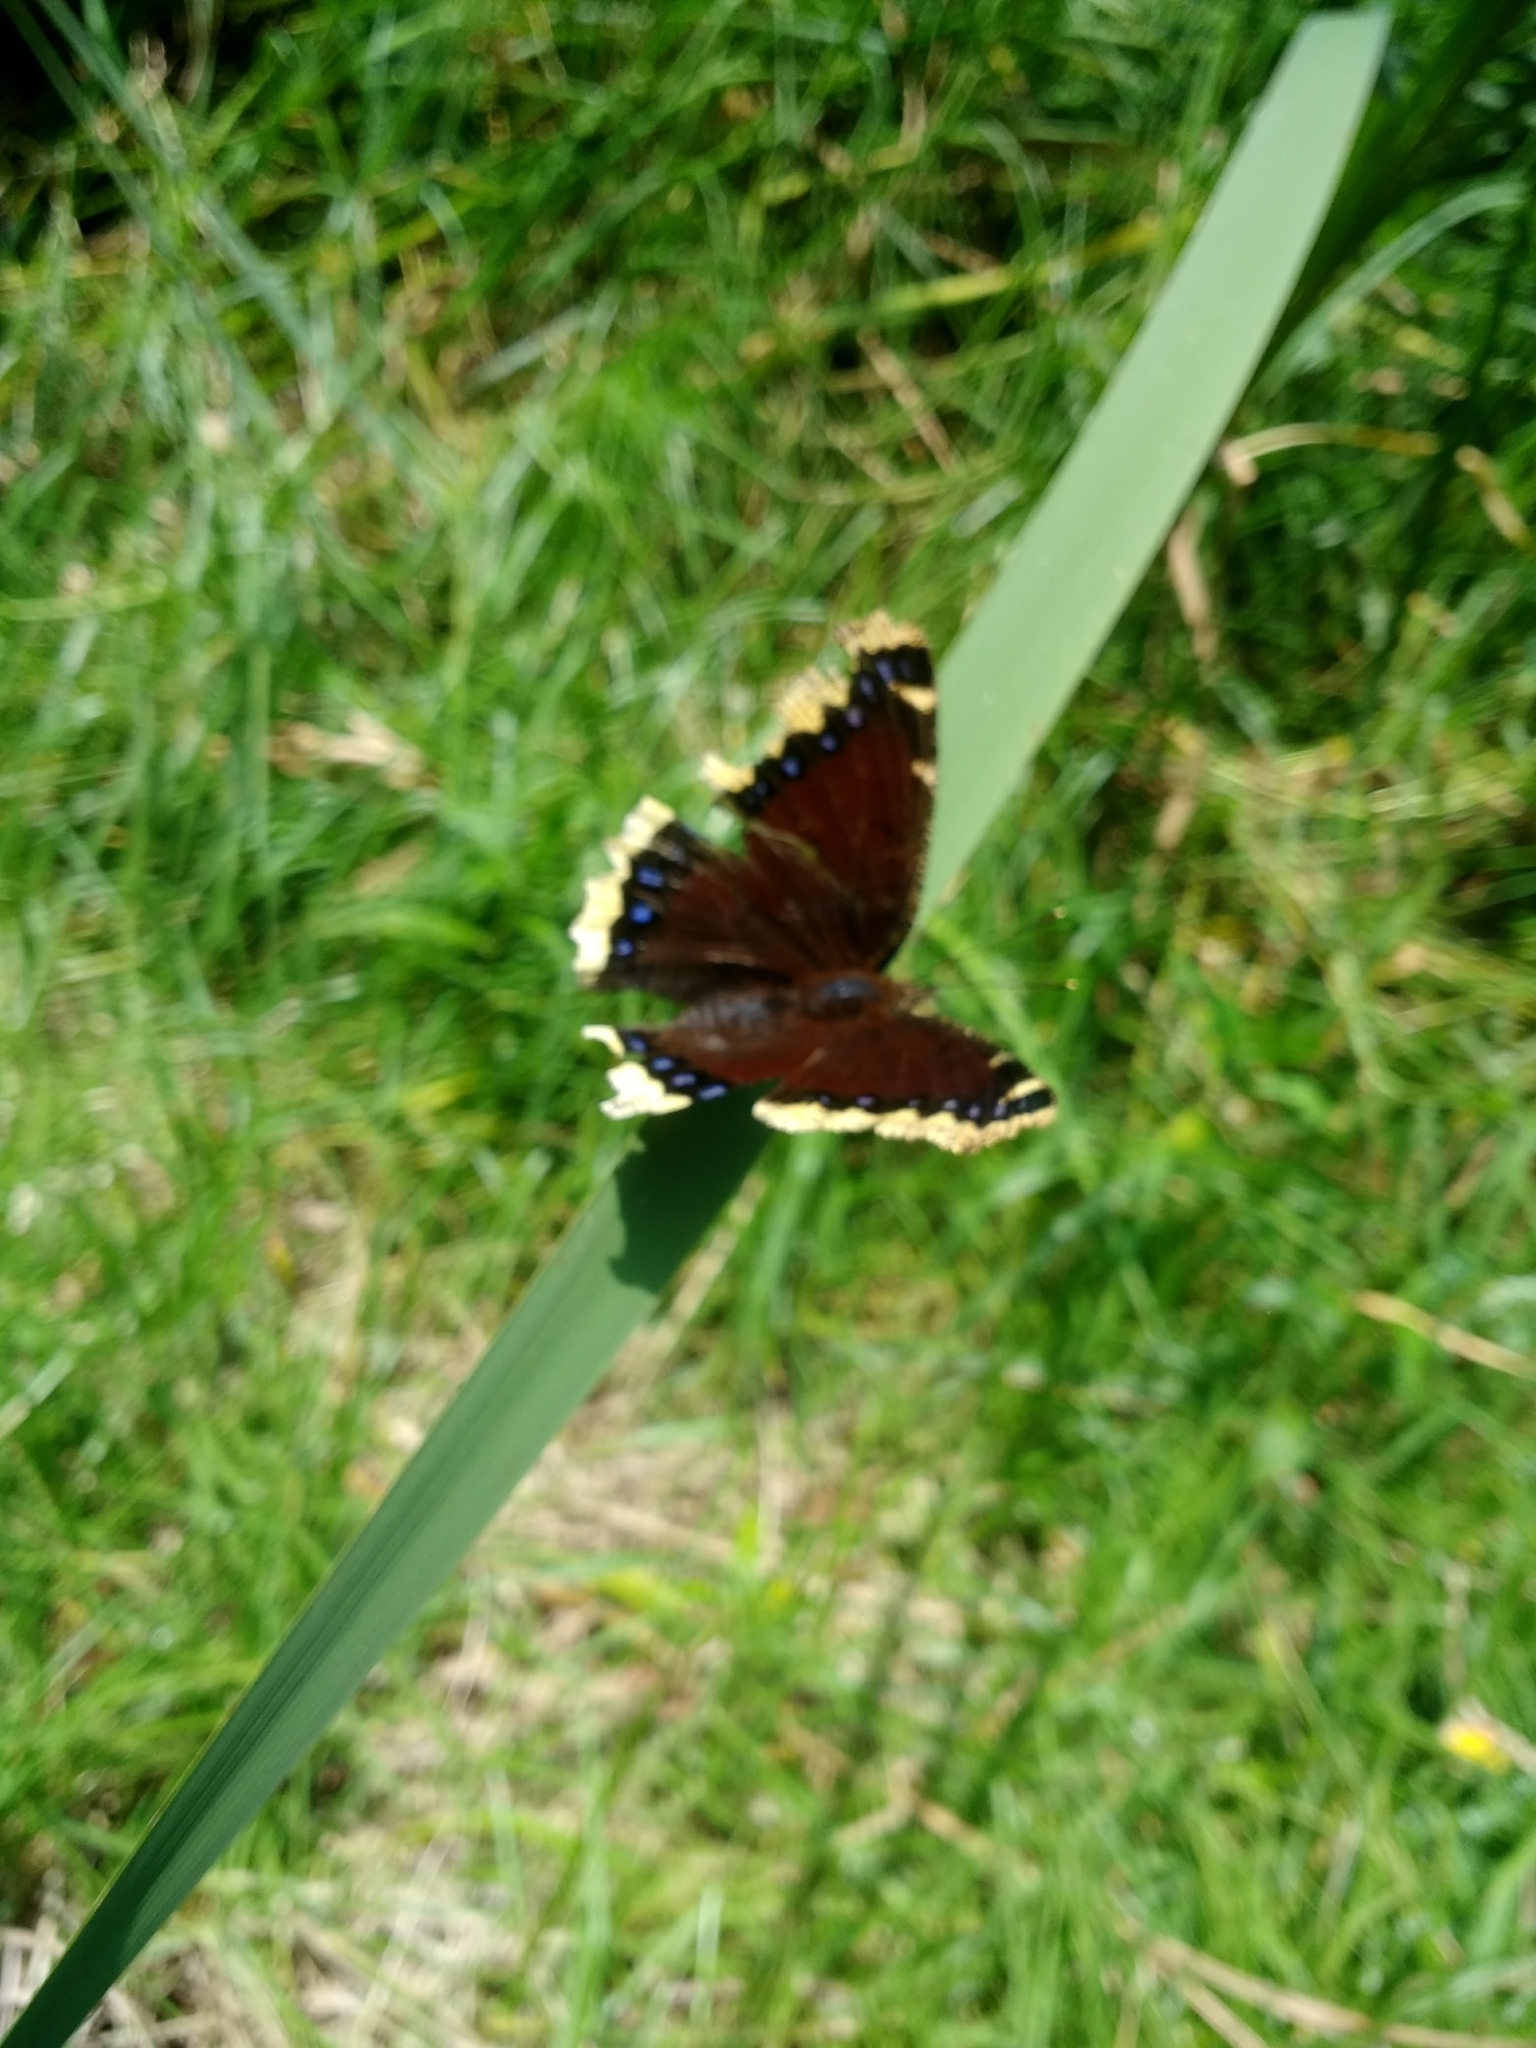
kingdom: Animalia
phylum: Arthropoda
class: Insecta
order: Lepidoptera
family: Nymphalidae
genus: Nymphalis
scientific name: Nymphalis antiopa
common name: Camberwell beauty
